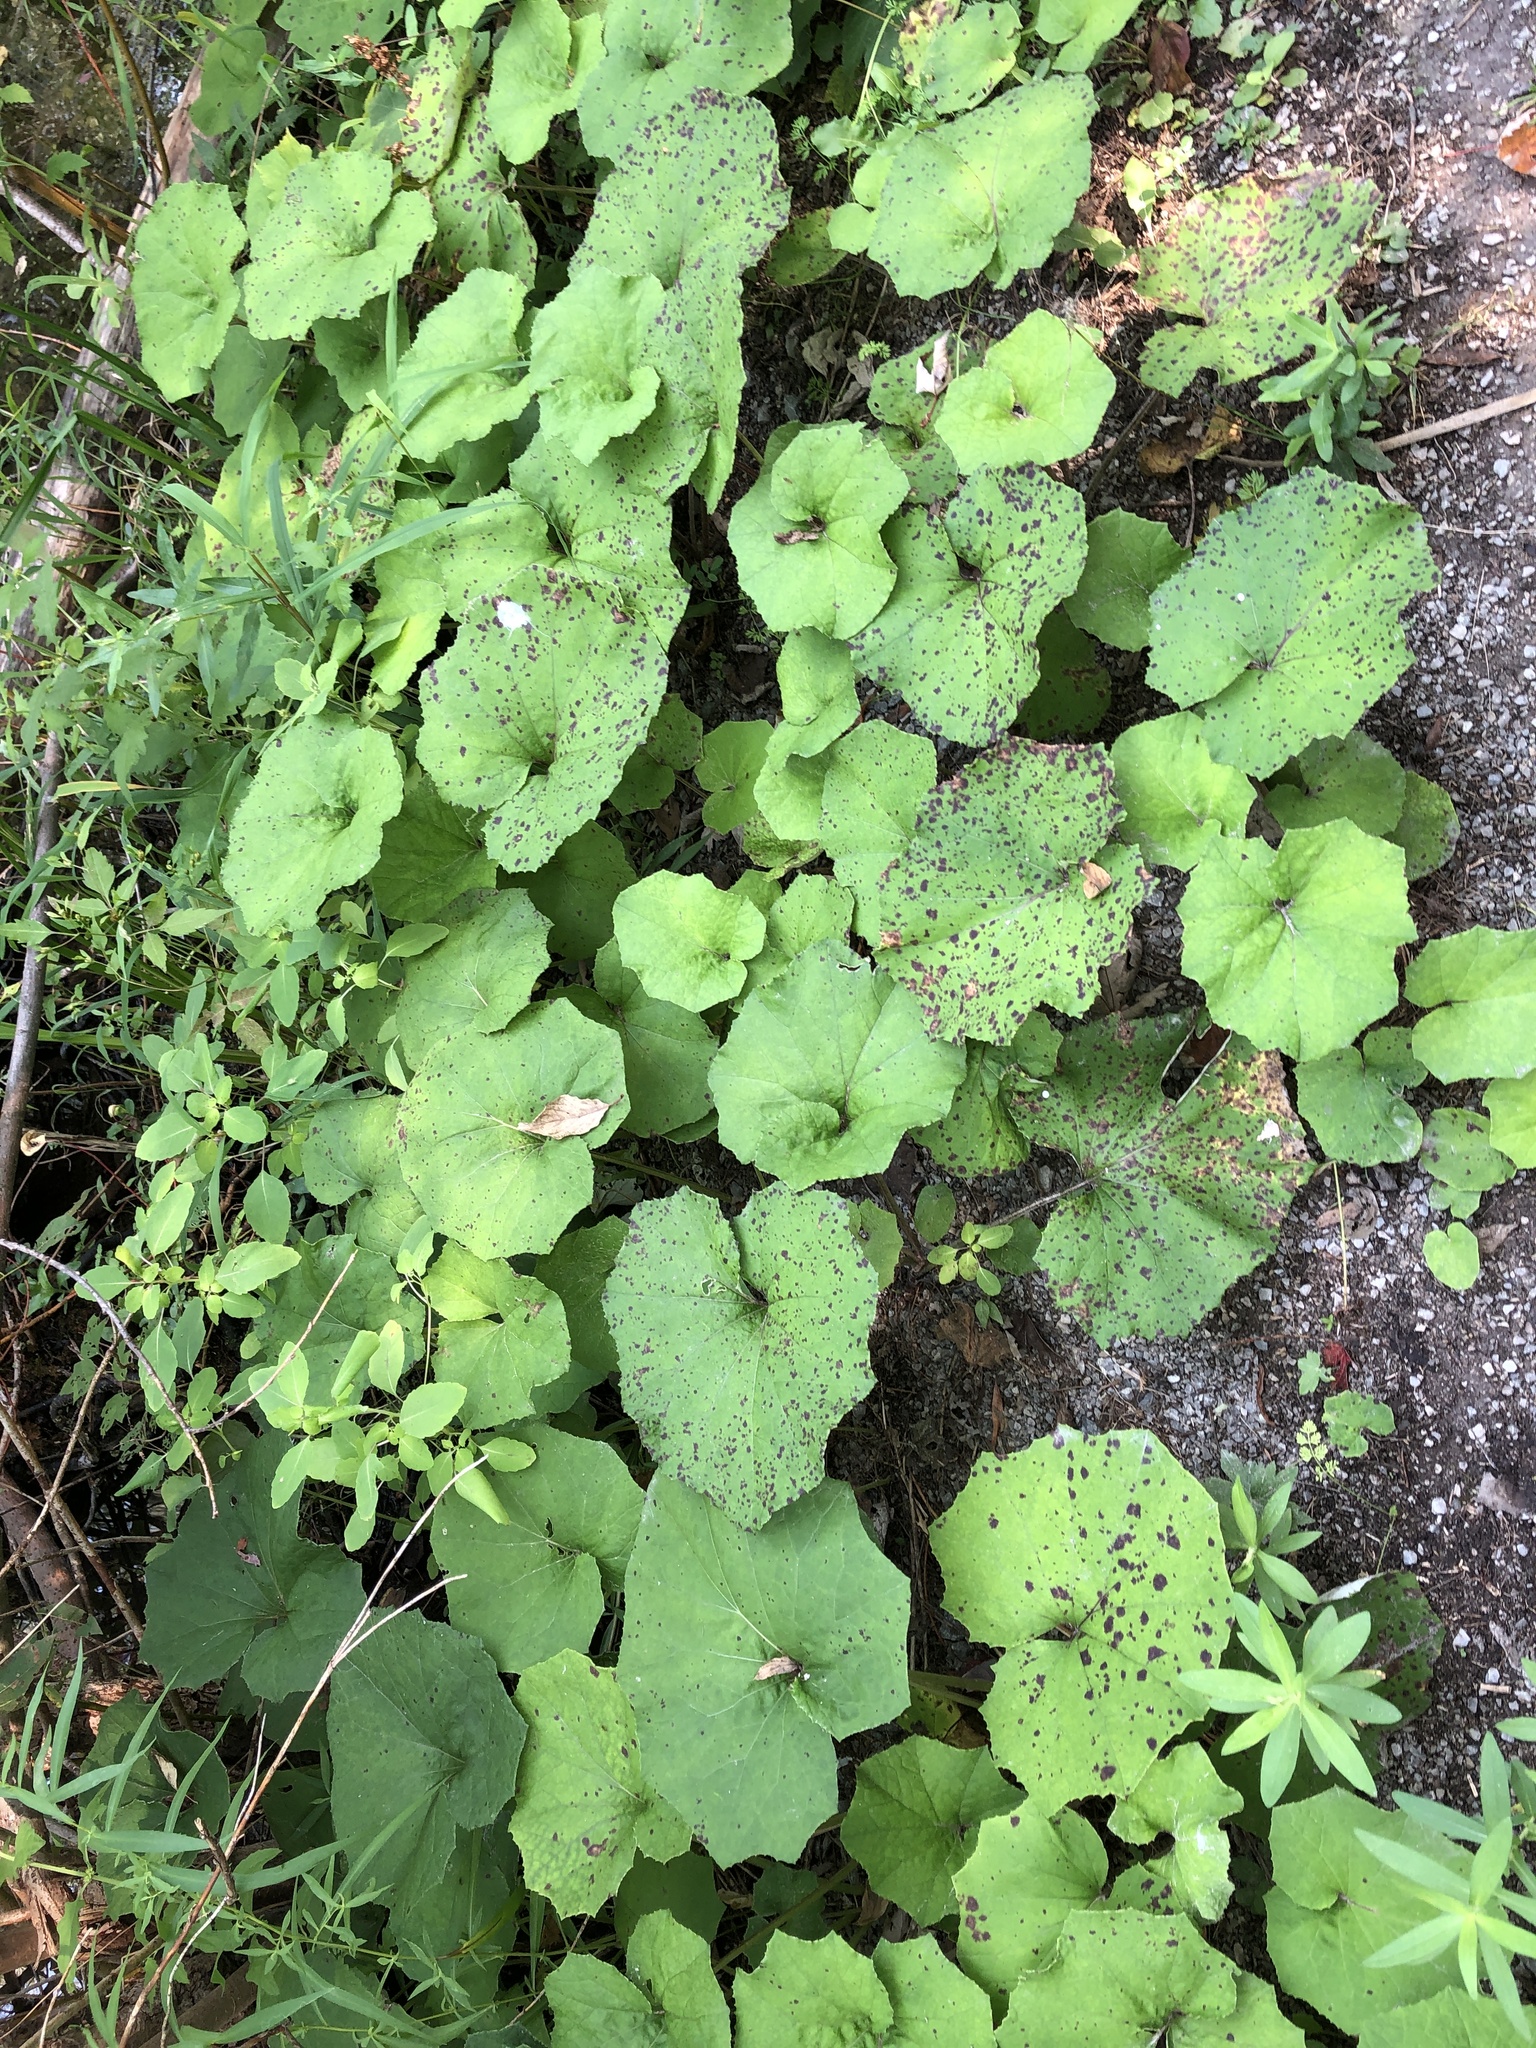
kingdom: Plantae
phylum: Tracheophyta
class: Magnoliopsida
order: Asterales
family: Asteraceae
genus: Tussilago
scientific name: Tussilago farfara
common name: Coltsfoot
